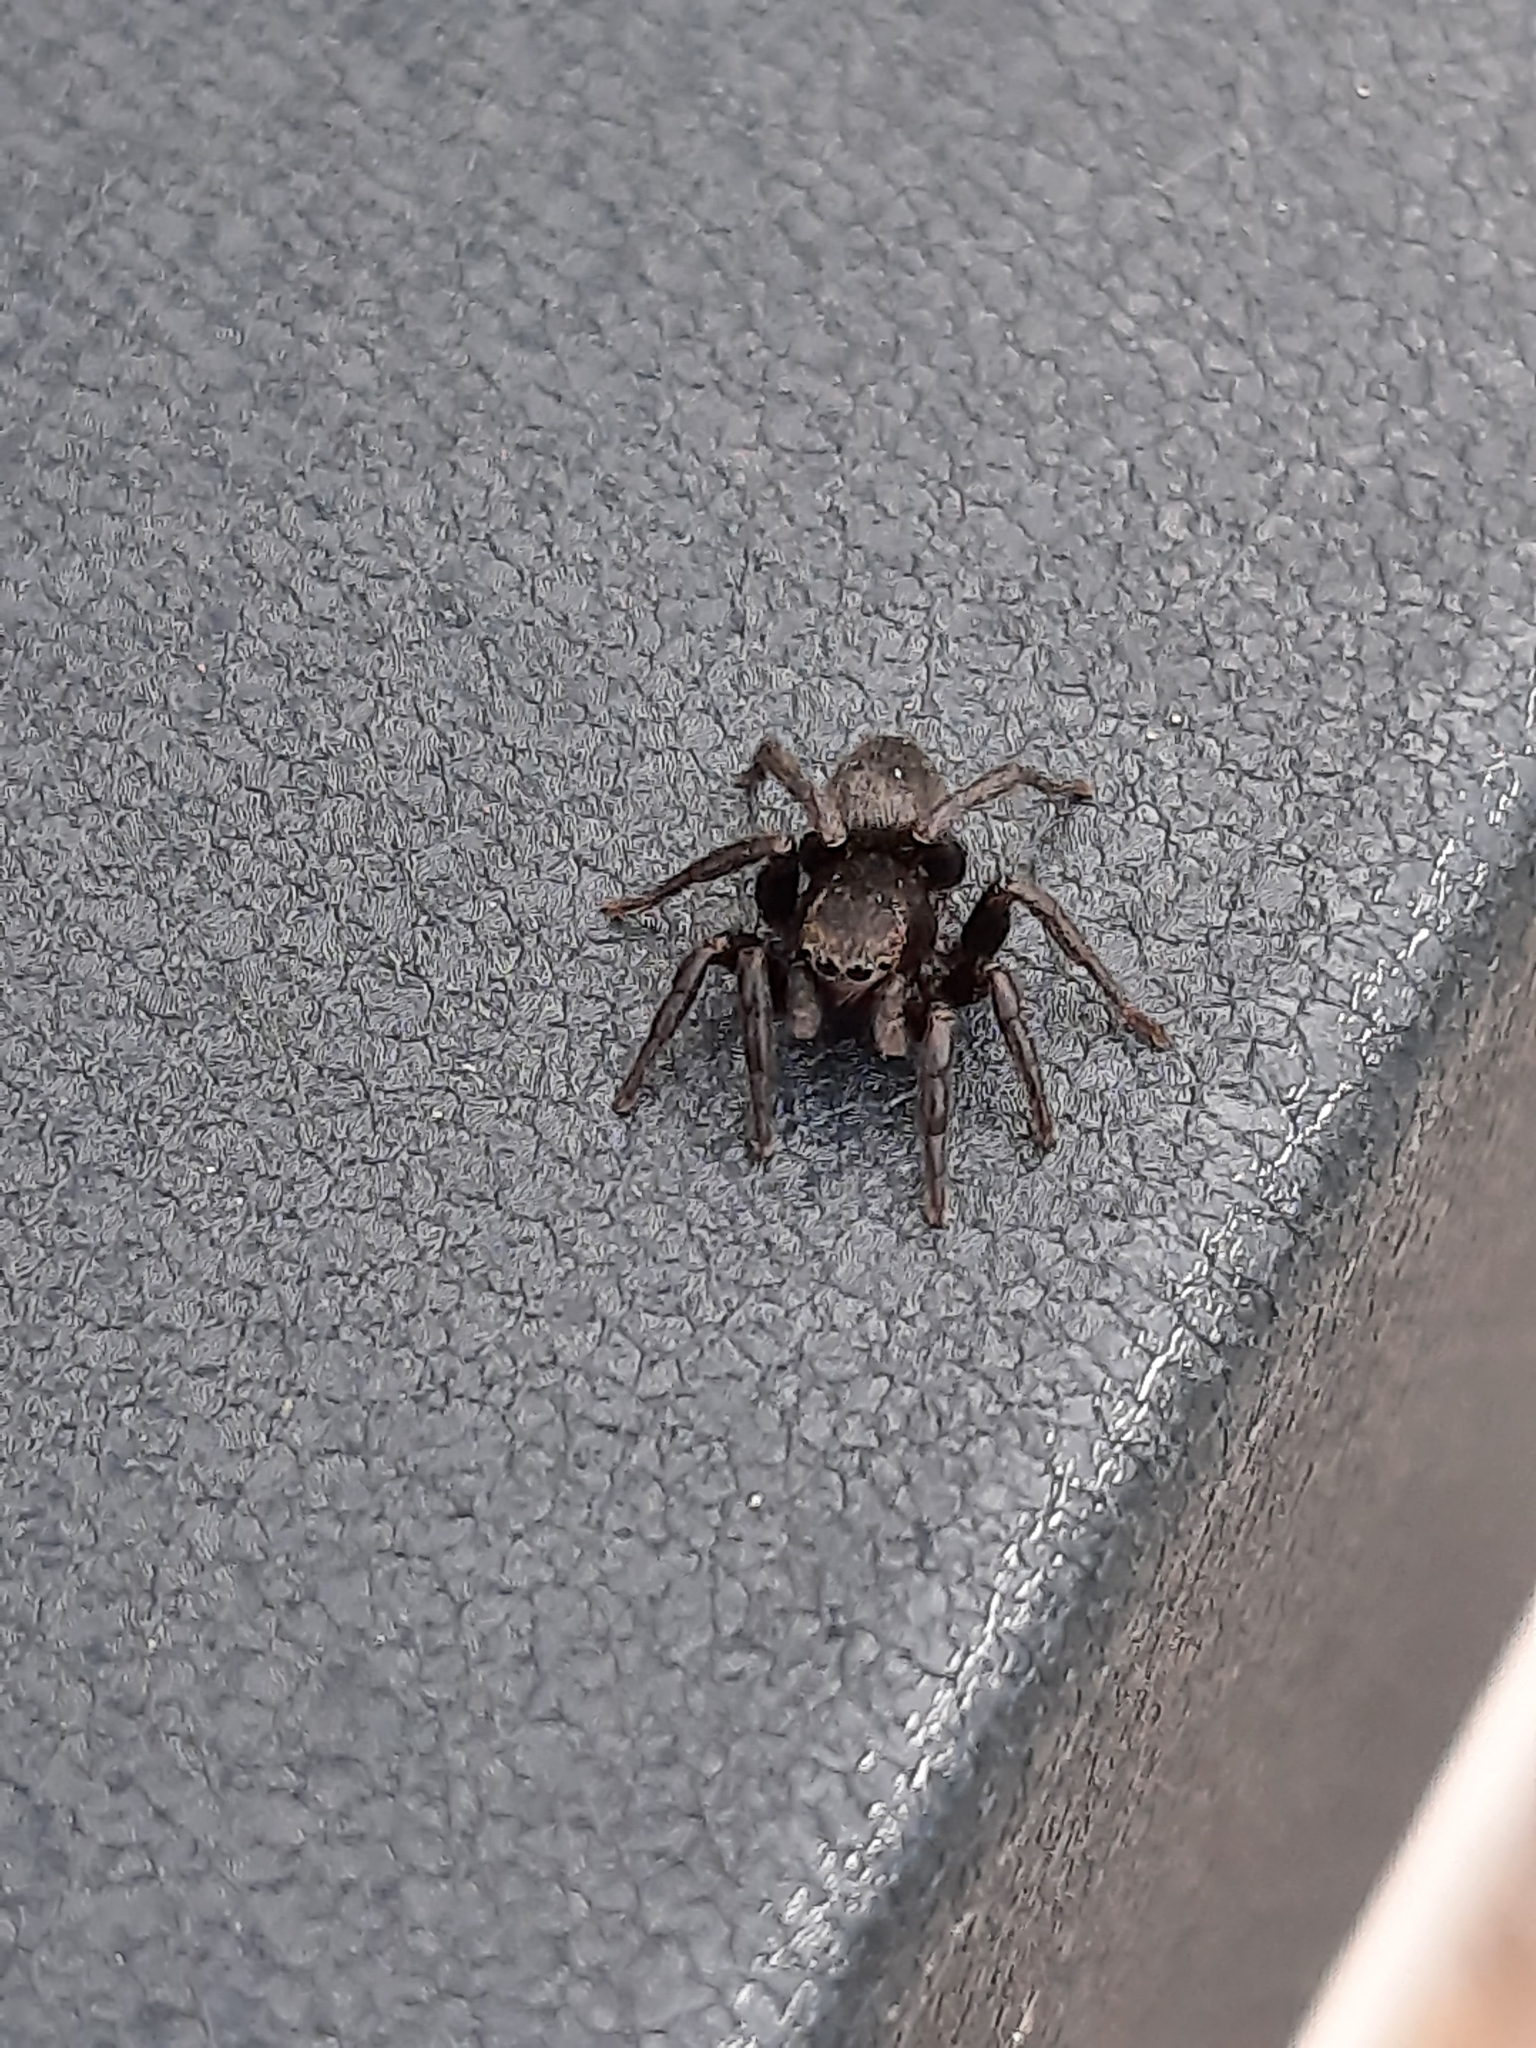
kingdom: Animalia
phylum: Arthropoda
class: Arachnida
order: Araneae
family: Salticidae
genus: Phlegra
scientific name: Phlegra fasciata
